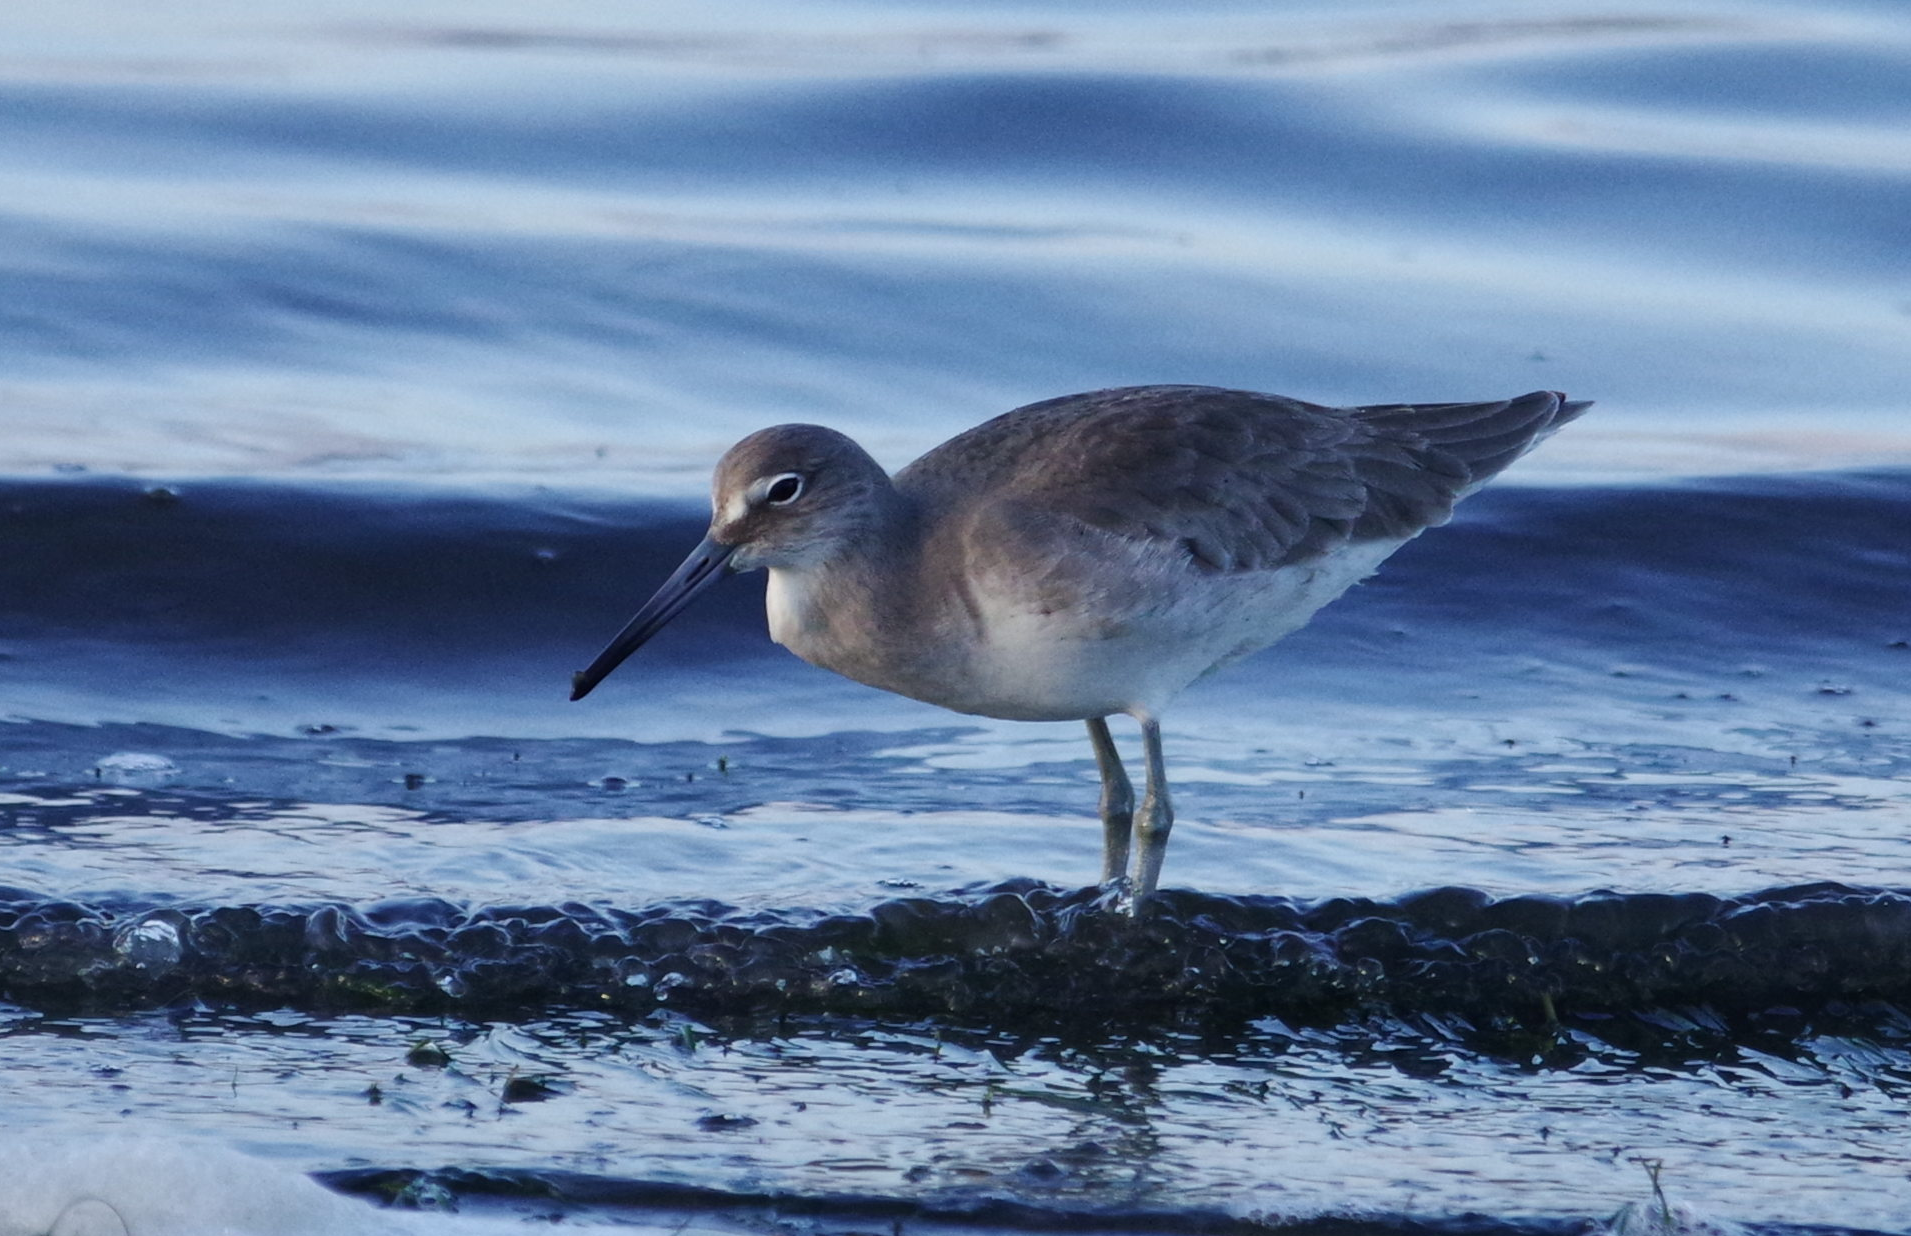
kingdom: Animalia
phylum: Chordata
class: Aves
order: Charadriiformes
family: Scolopacidae
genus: Tringa
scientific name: Tringa semipalmata
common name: Willet
